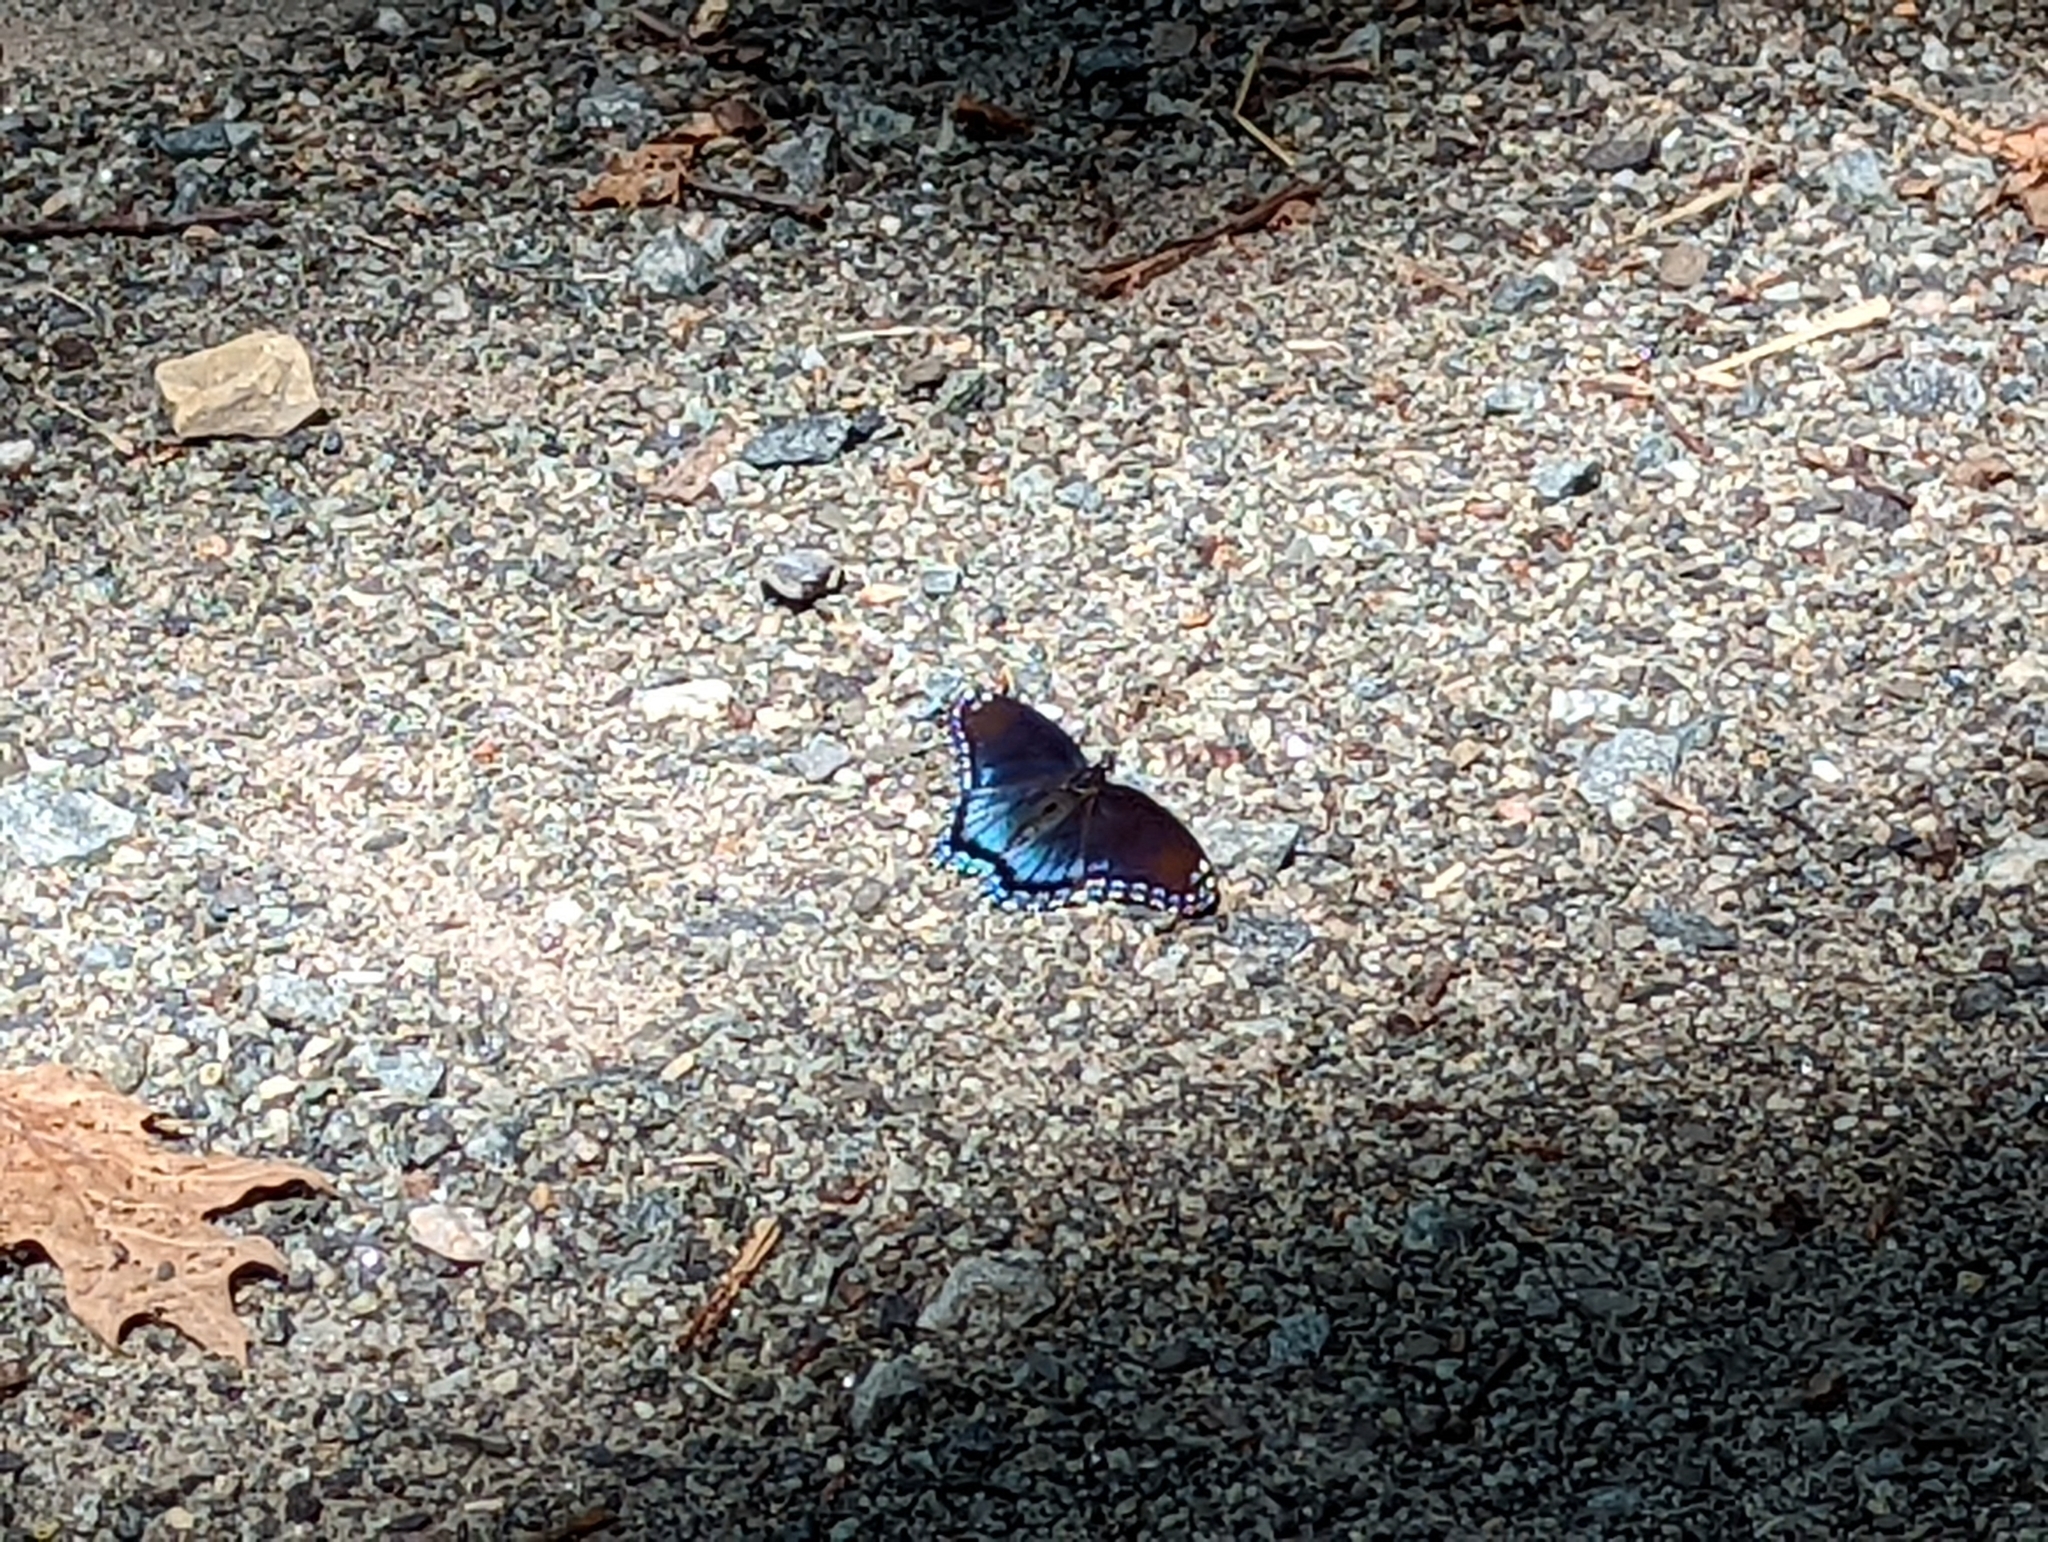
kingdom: Animalia
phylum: Arthropoda
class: Insecta
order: Lepidoptera
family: Nymphalidae
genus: Limenitis
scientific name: Limenitis arthemis
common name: Red-spotted admiral
